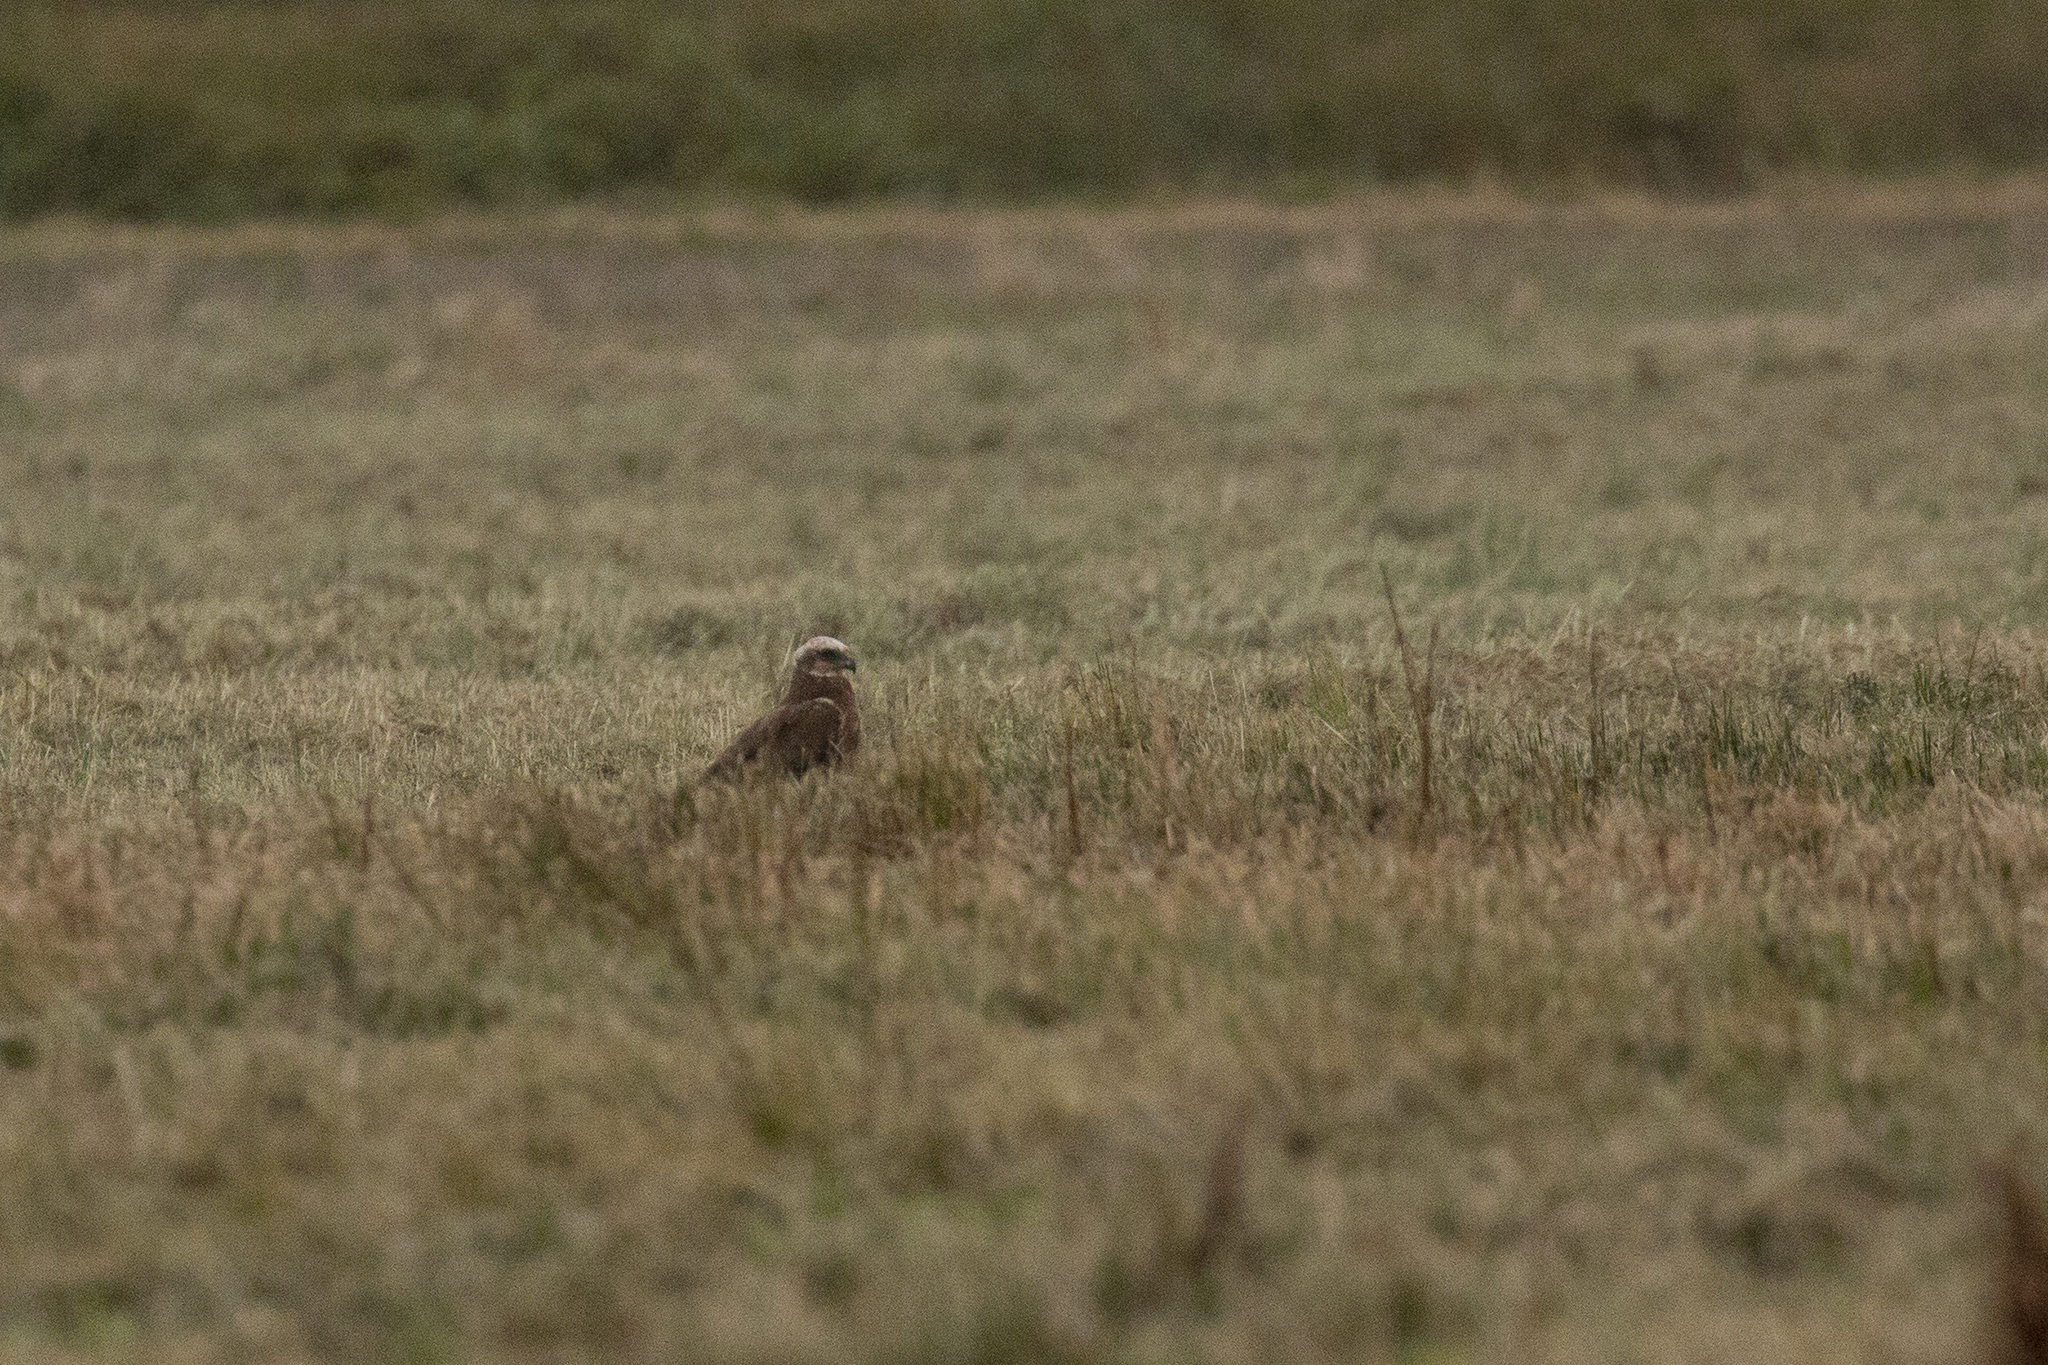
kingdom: Animalia
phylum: Chordata
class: Aves
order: Accipitriformes
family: Accipitridae
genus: Circus
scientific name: Circus aeruginosus
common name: Western marsh harrier
